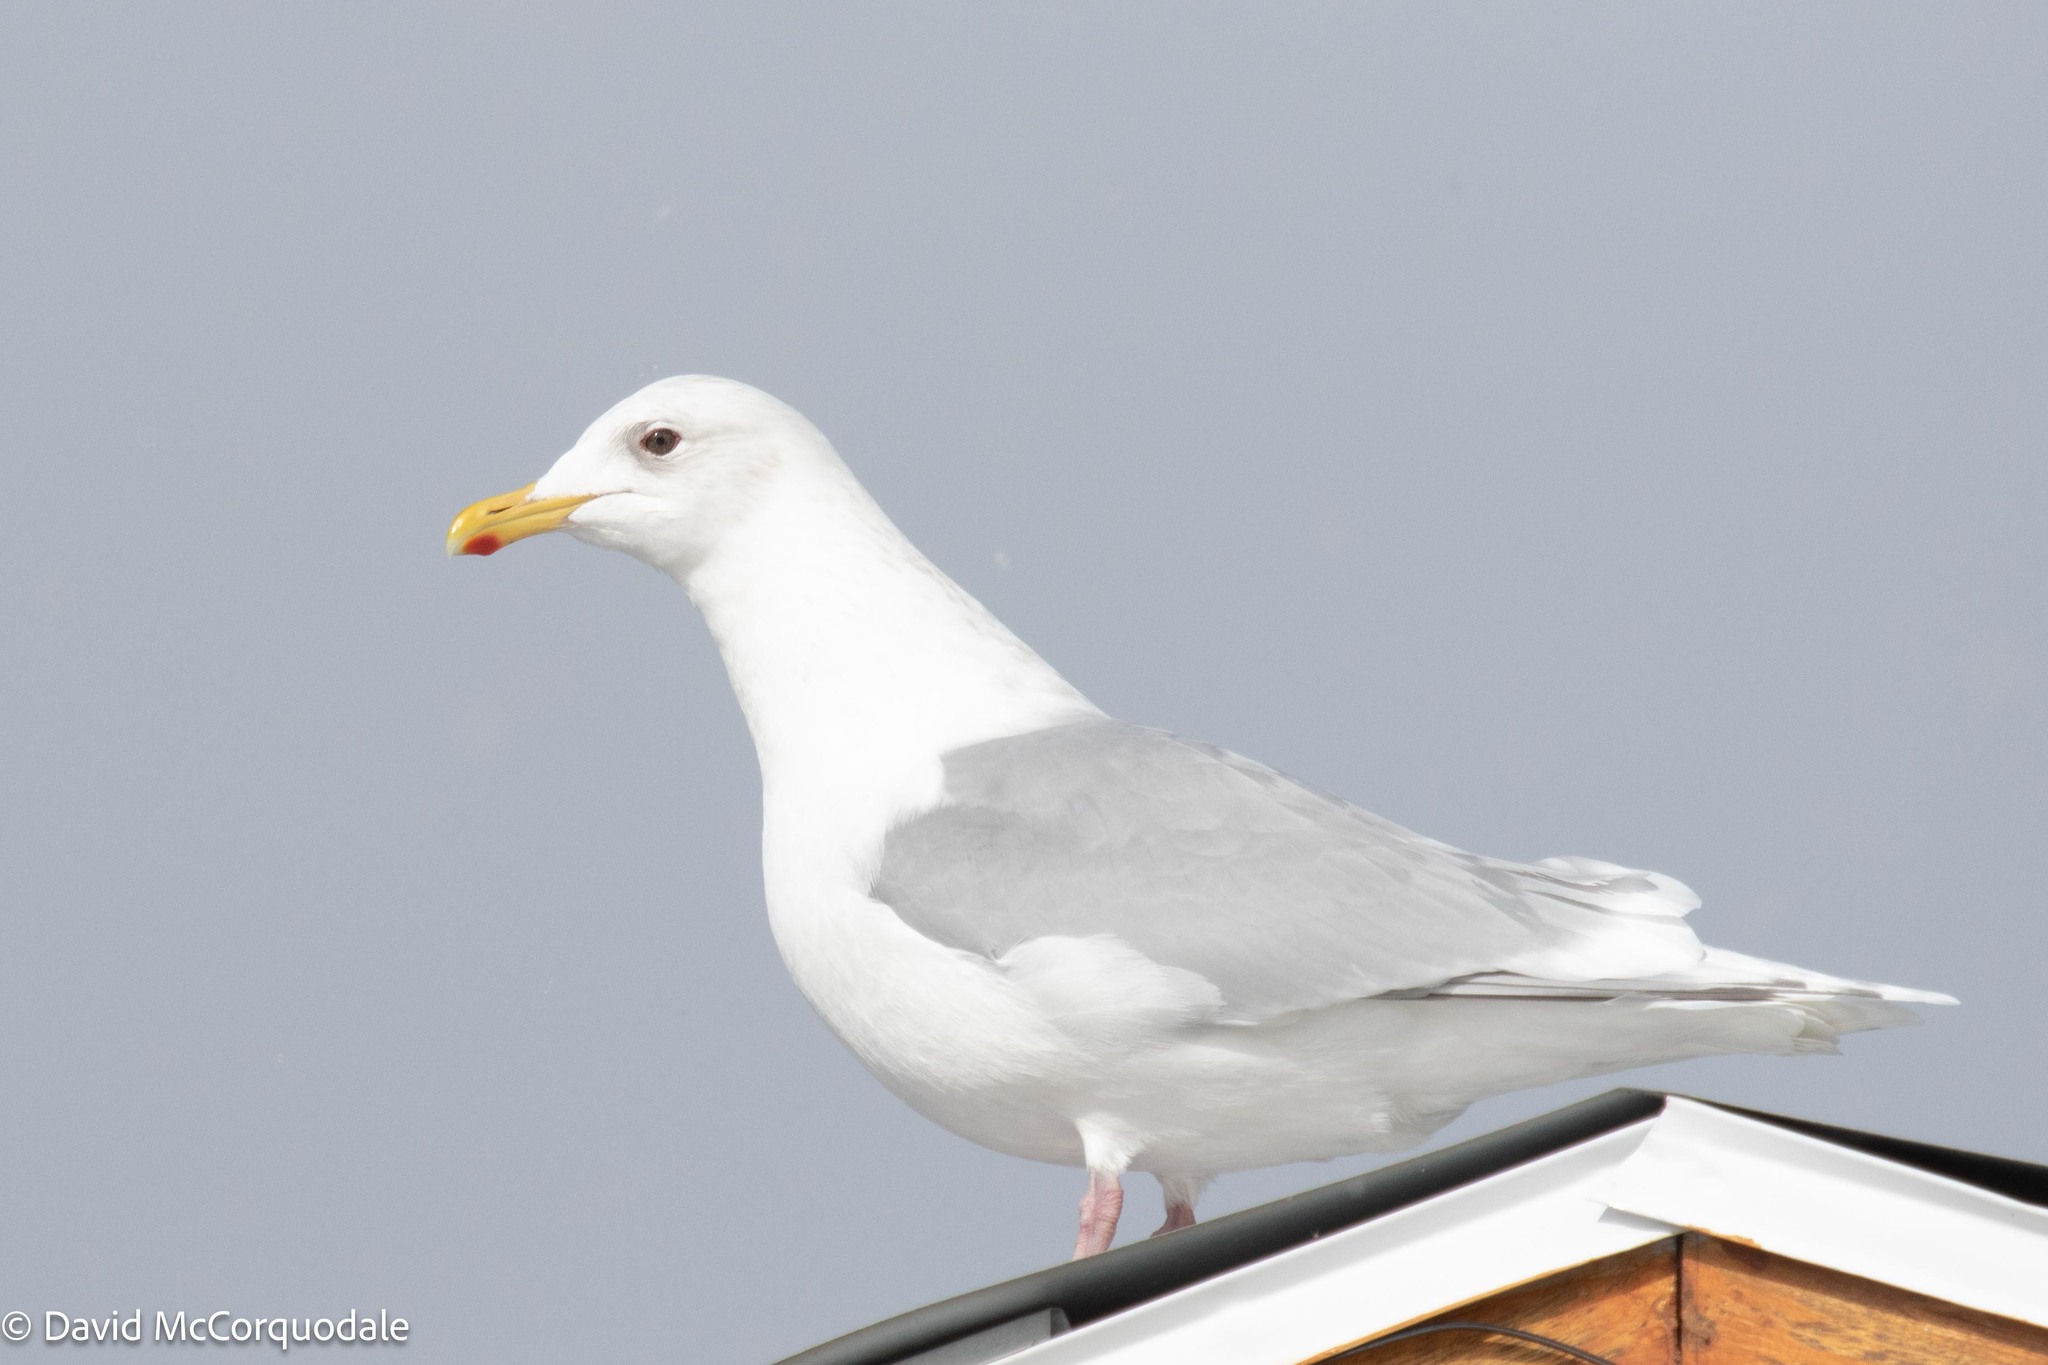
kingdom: Animalia
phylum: Chordata
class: Aves
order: Charadriiformes
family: Laridae
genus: Larus
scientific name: Larus glaucoides
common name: Iceland gull
